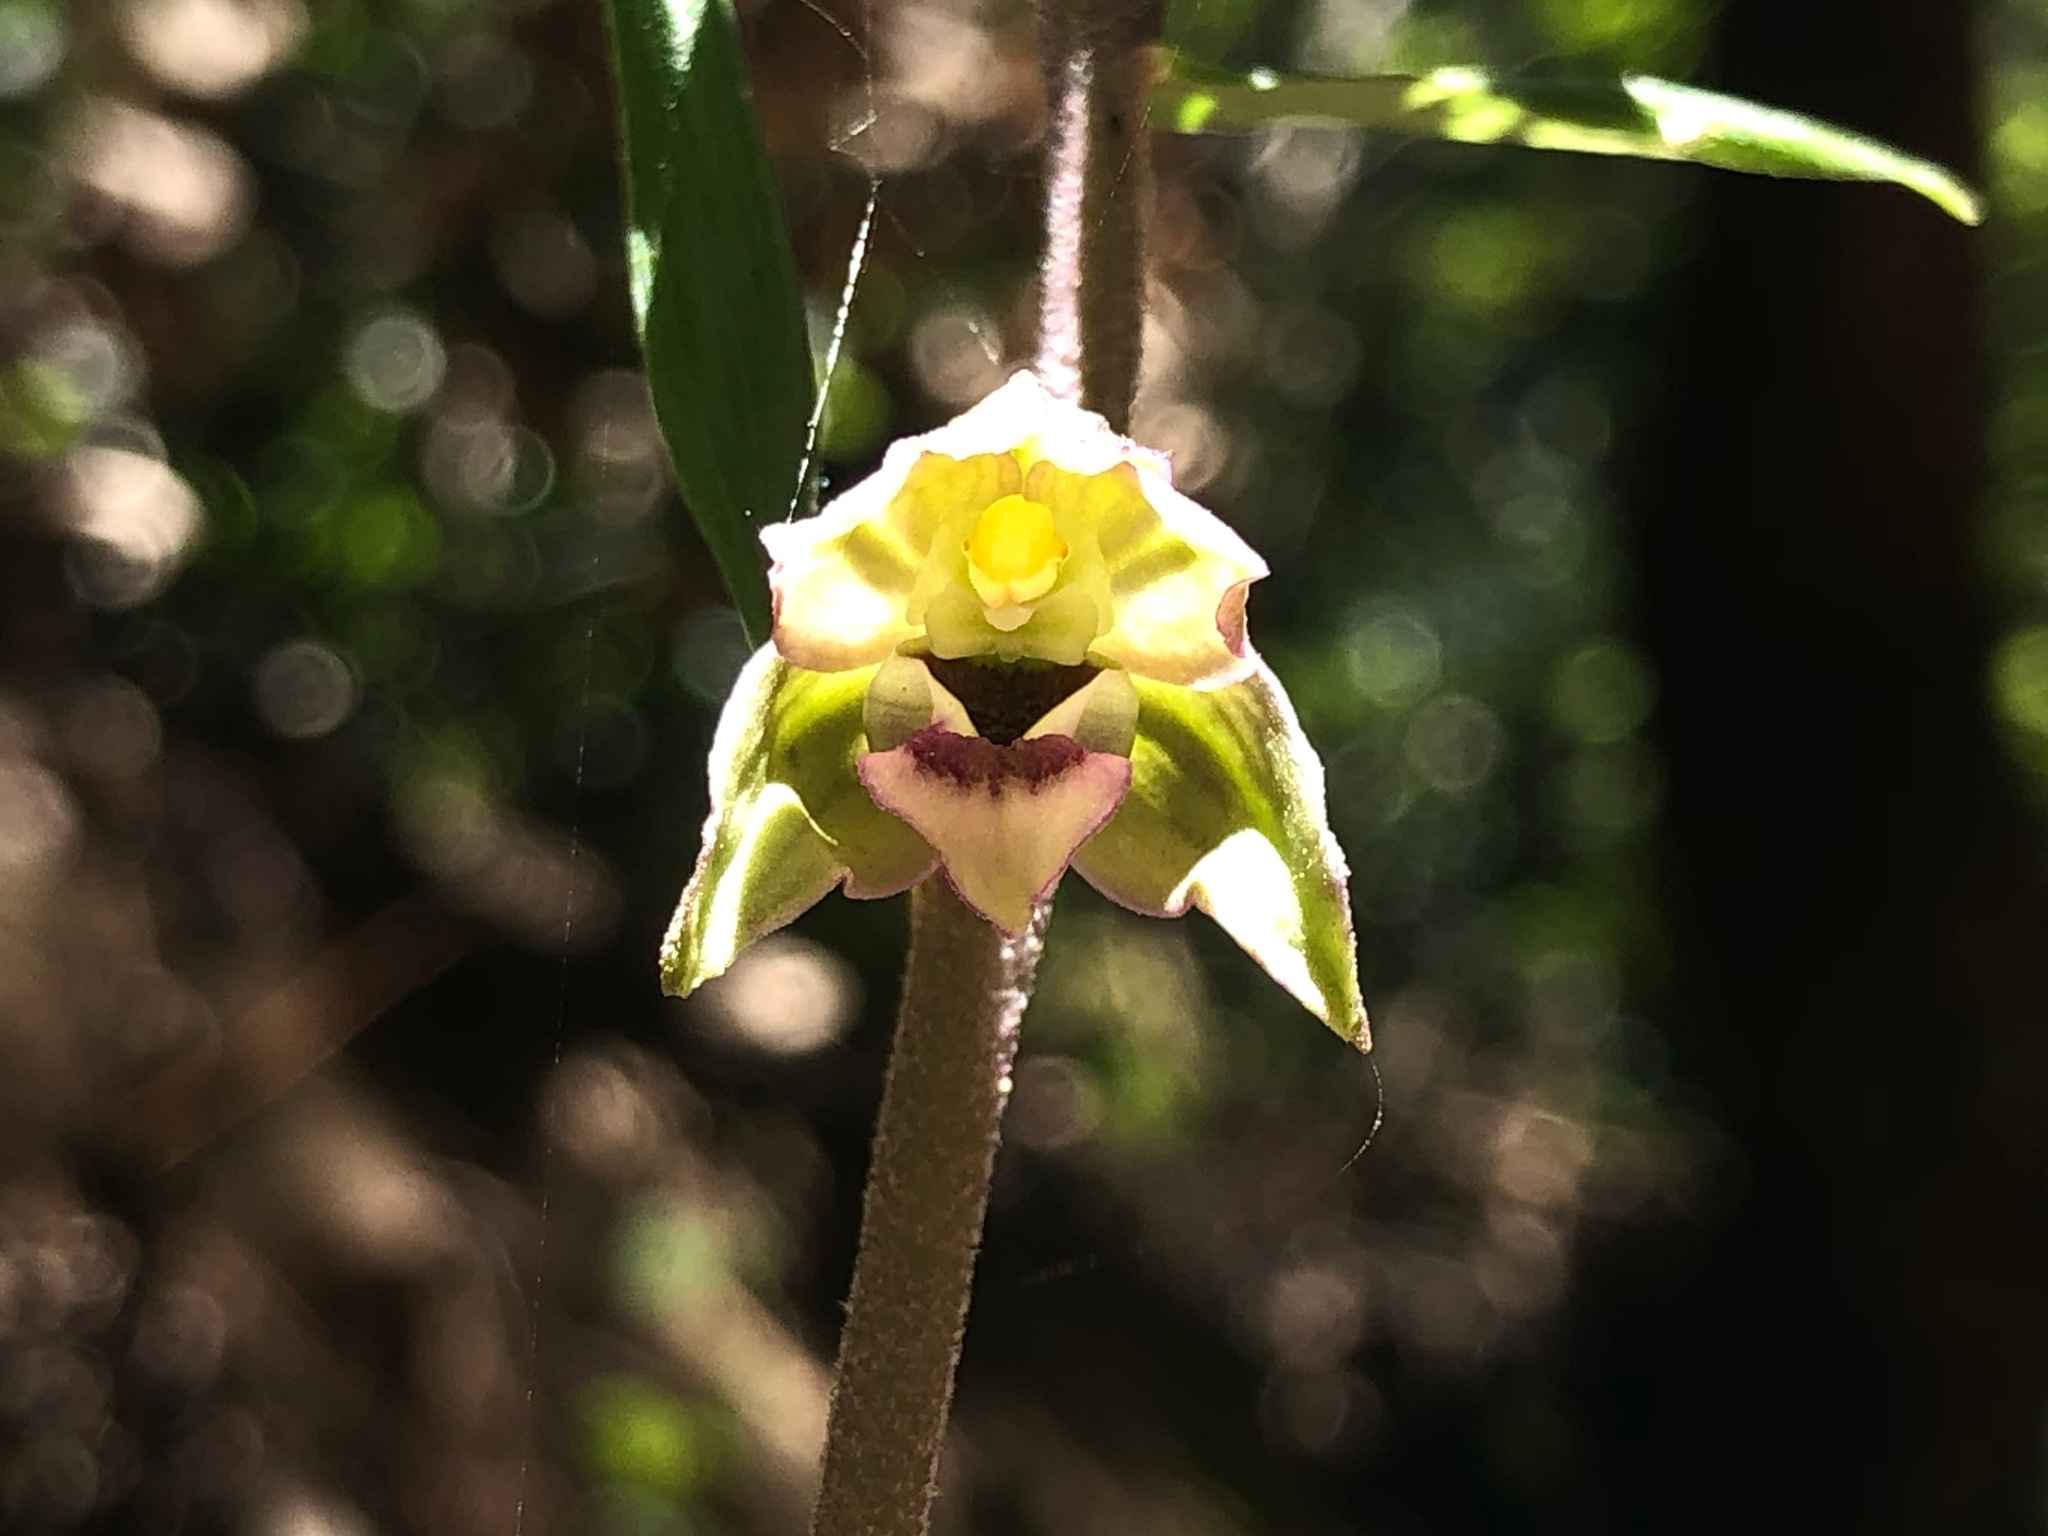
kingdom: Plantae
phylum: Tracheophyta
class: Liliopsida
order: Asparagales
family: Orchidaceae
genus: Epipactis
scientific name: Epipactis helleborine
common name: Broad-leaved helleborine
